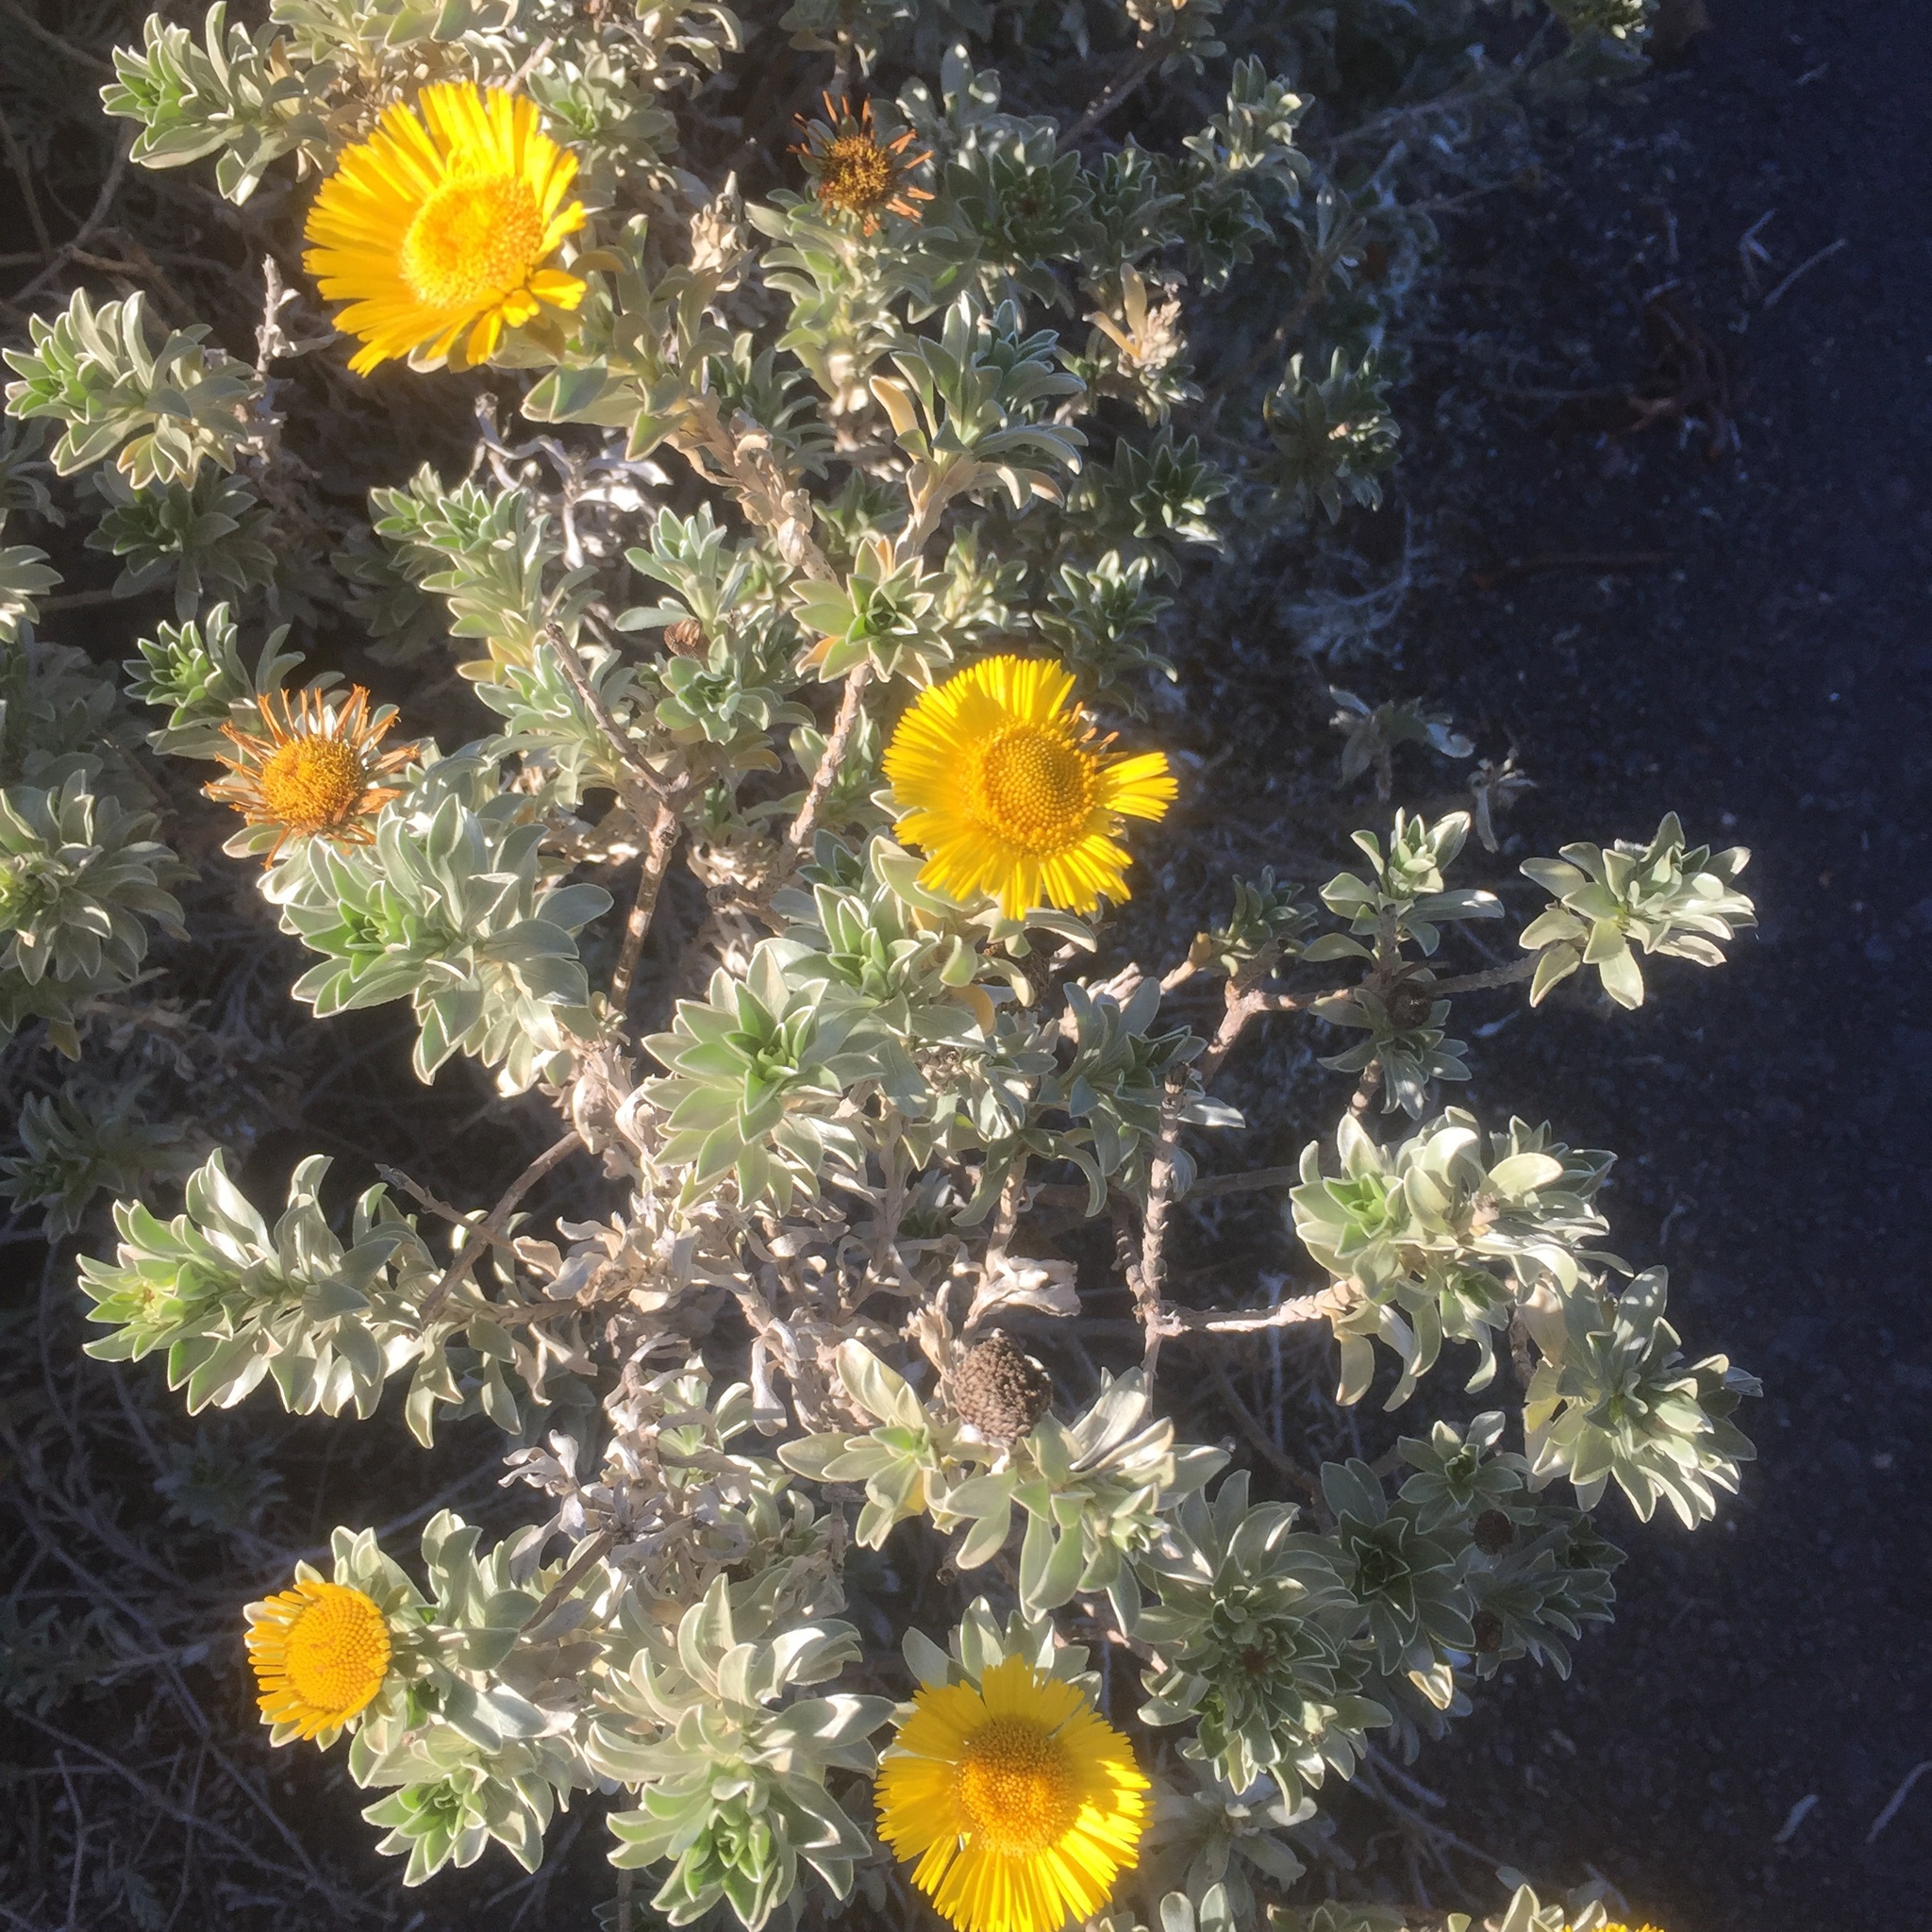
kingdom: Plantae
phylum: Tracheophyta
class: Magnoliopsida
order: Asterales
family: Asteraceae
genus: Asteriscus
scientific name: Asteriscus intermedius
